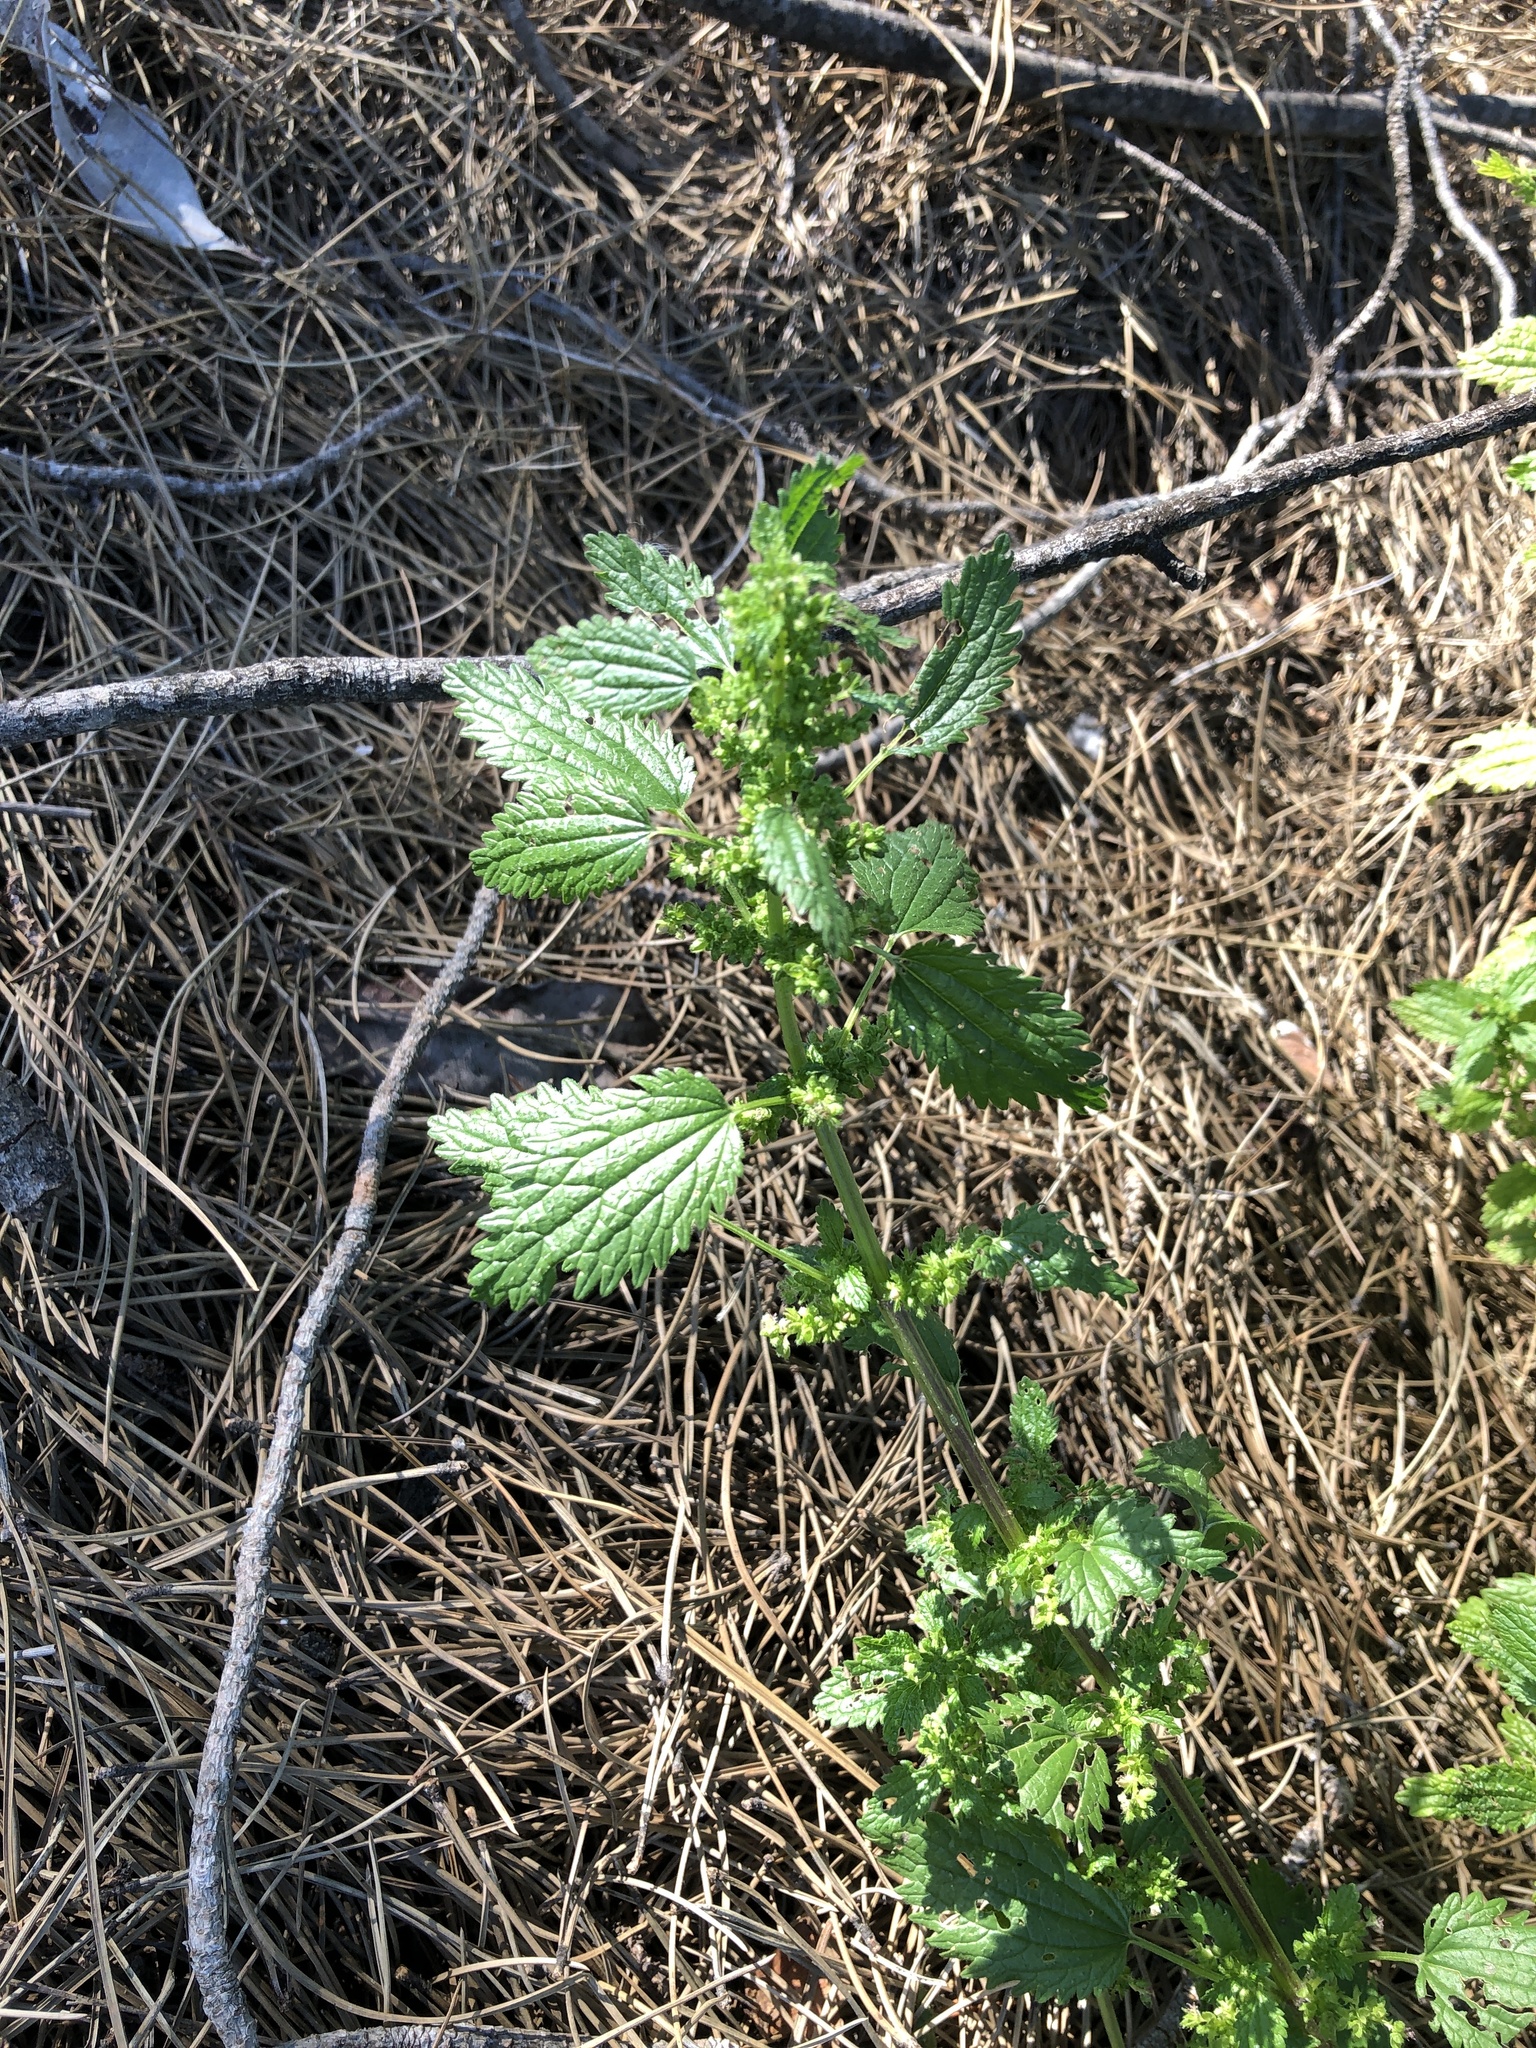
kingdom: Plantae
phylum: Tracheophyta
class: Magnoliopsida
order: Rosales
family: Urticaceae
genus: Urtica
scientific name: Urtica urens
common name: Dwarf nettle
